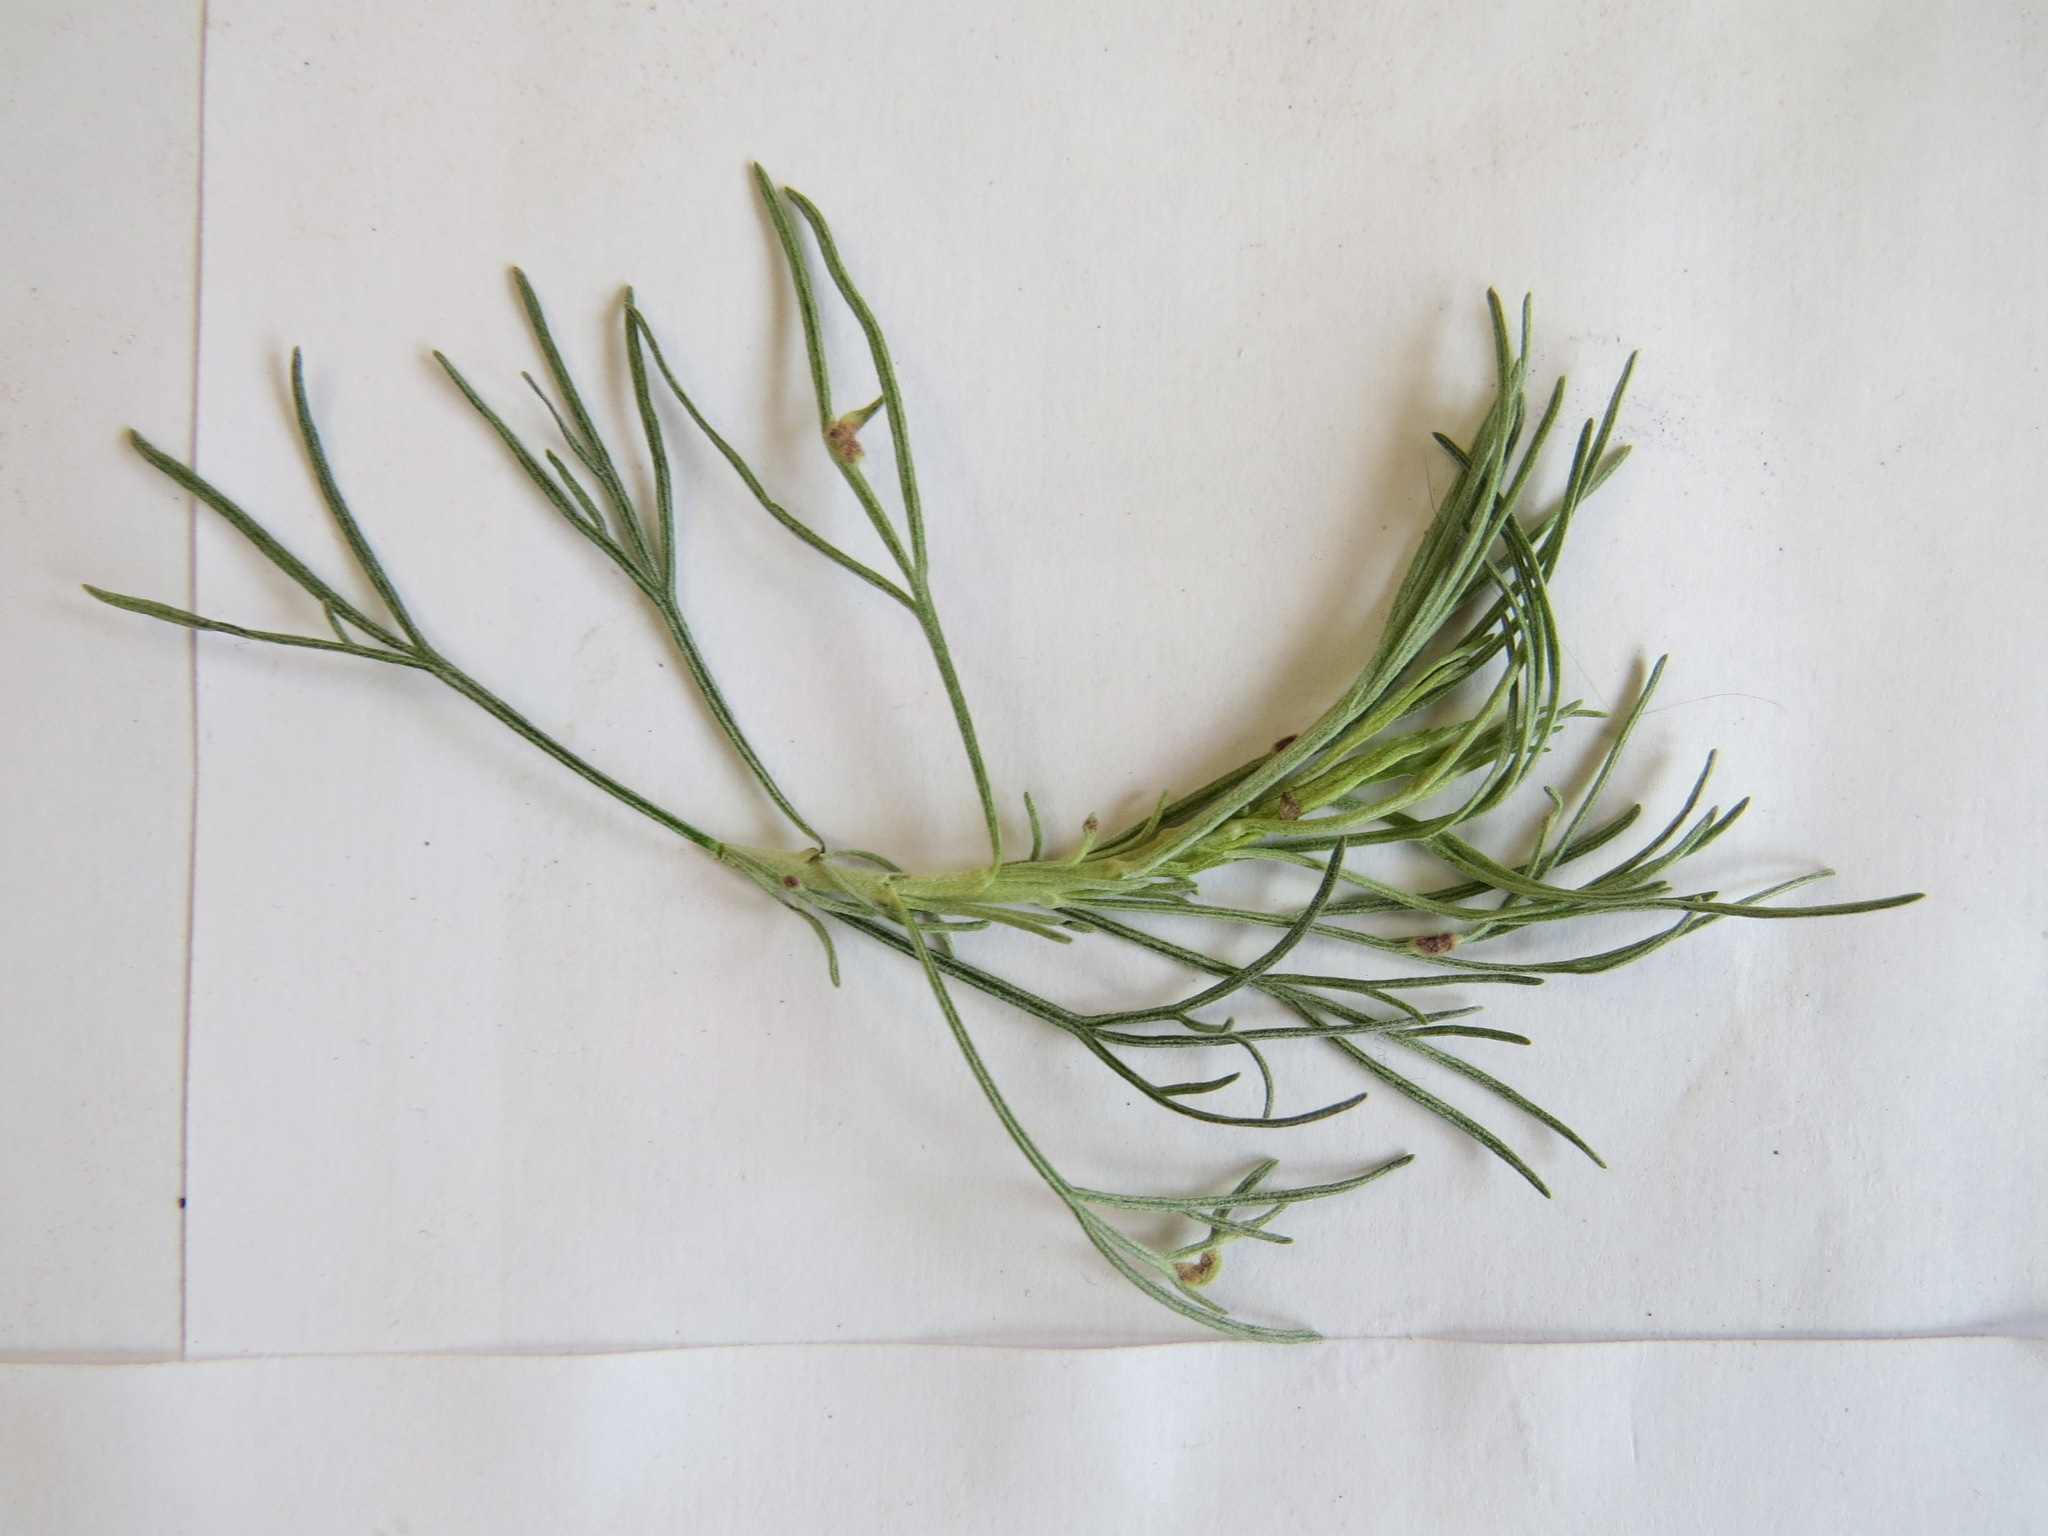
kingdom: Animalia
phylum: Arthropoda
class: Arachnida
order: Trombidiformes
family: Eriophyidae
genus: Aceria
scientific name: Aceria
